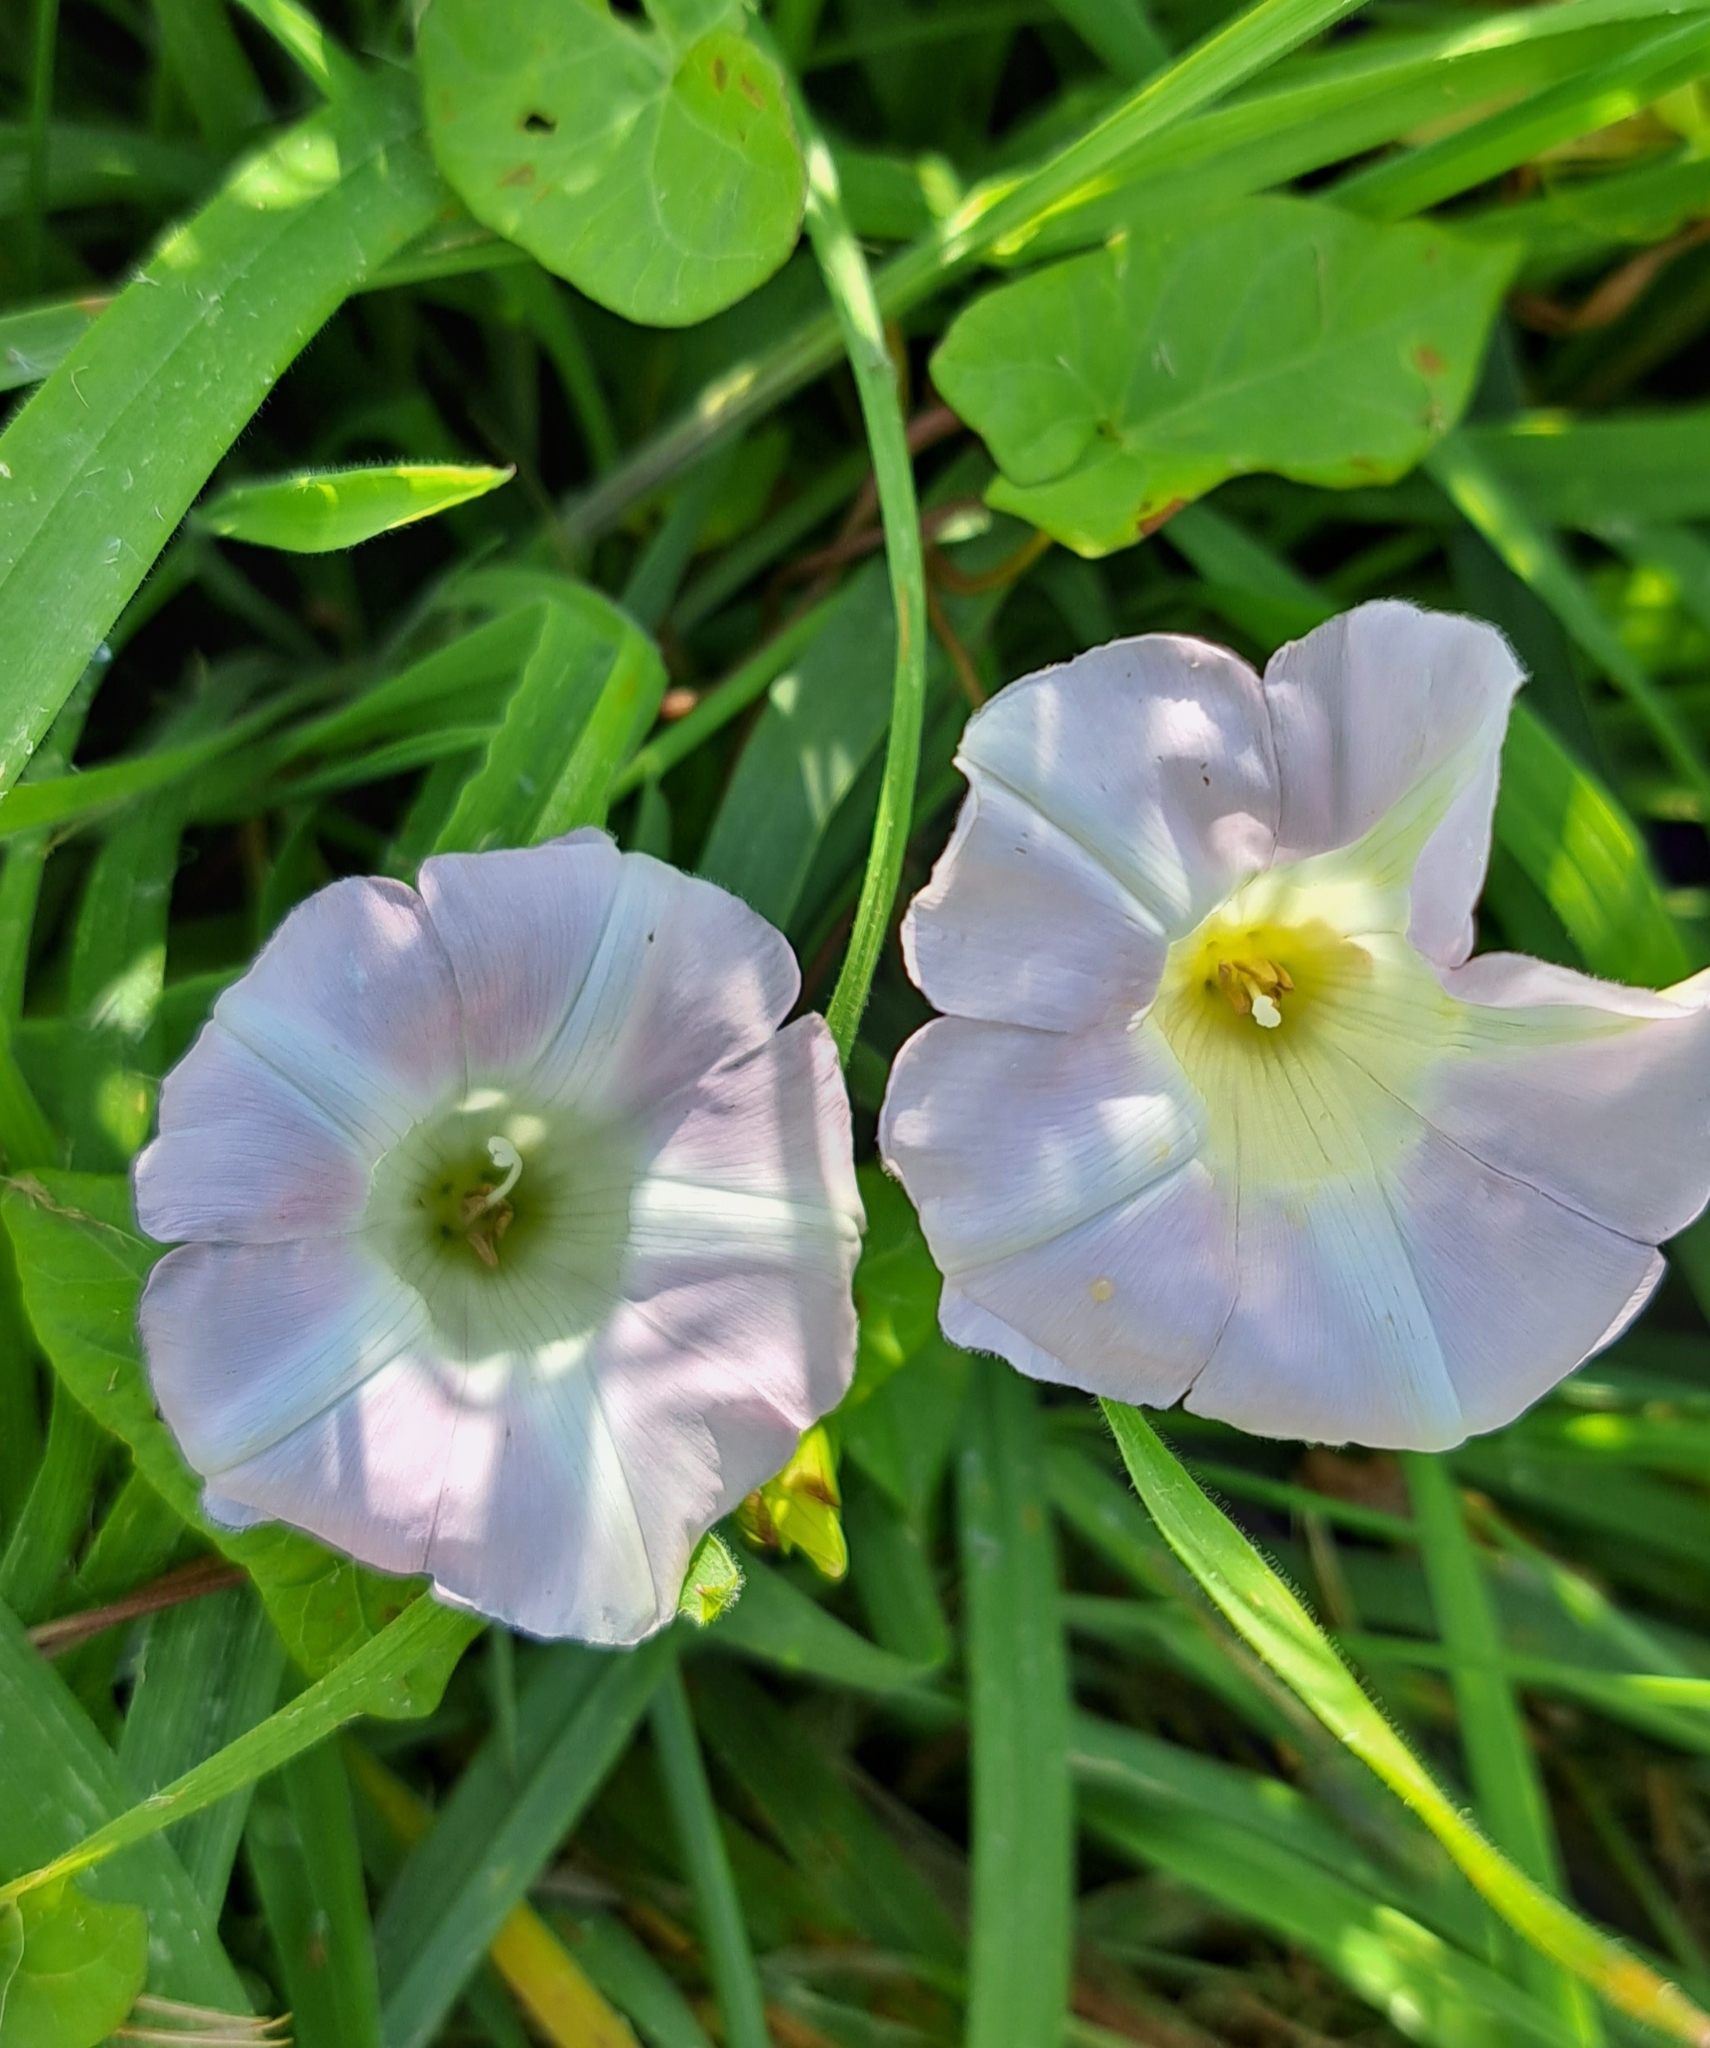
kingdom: Plantae
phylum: Tracheophyta
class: Magnoliopsida
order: Solanales
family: Convolvulaceae
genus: Convolvulus
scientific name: Convolvulus arvensis
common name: Field bindweed
